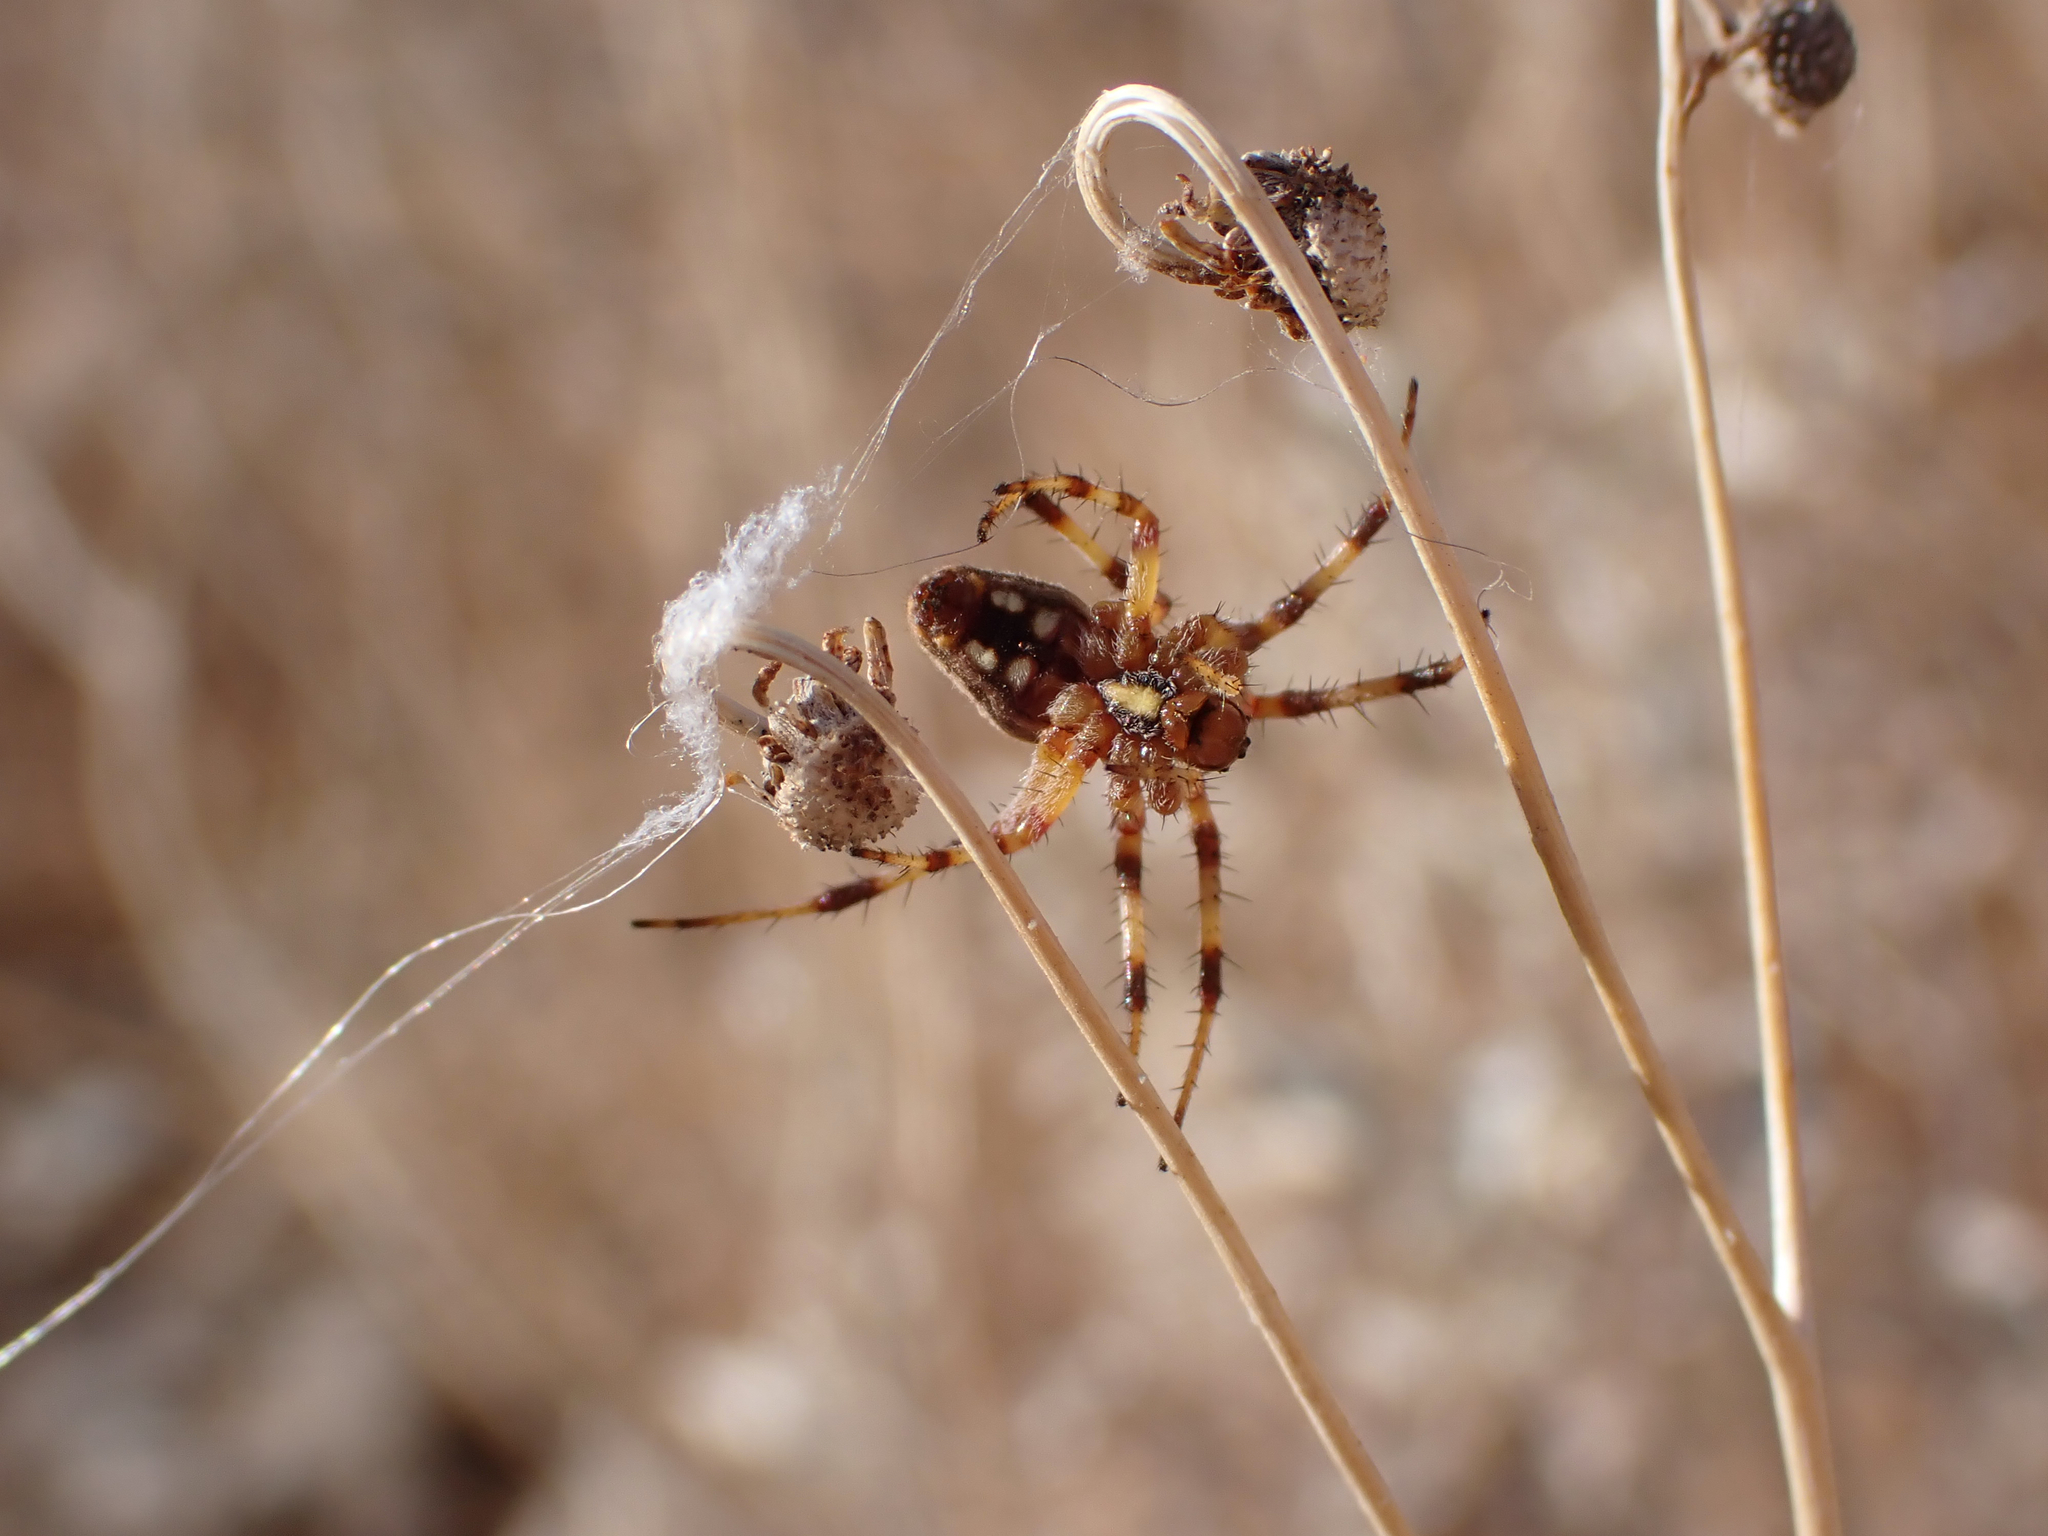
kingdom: Animalia
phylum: Arthropoda
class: Arachnida
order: Araneae
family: Araneidae
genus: Neoscona
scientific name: Neoscona oaxacensis
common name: Orb weavers
